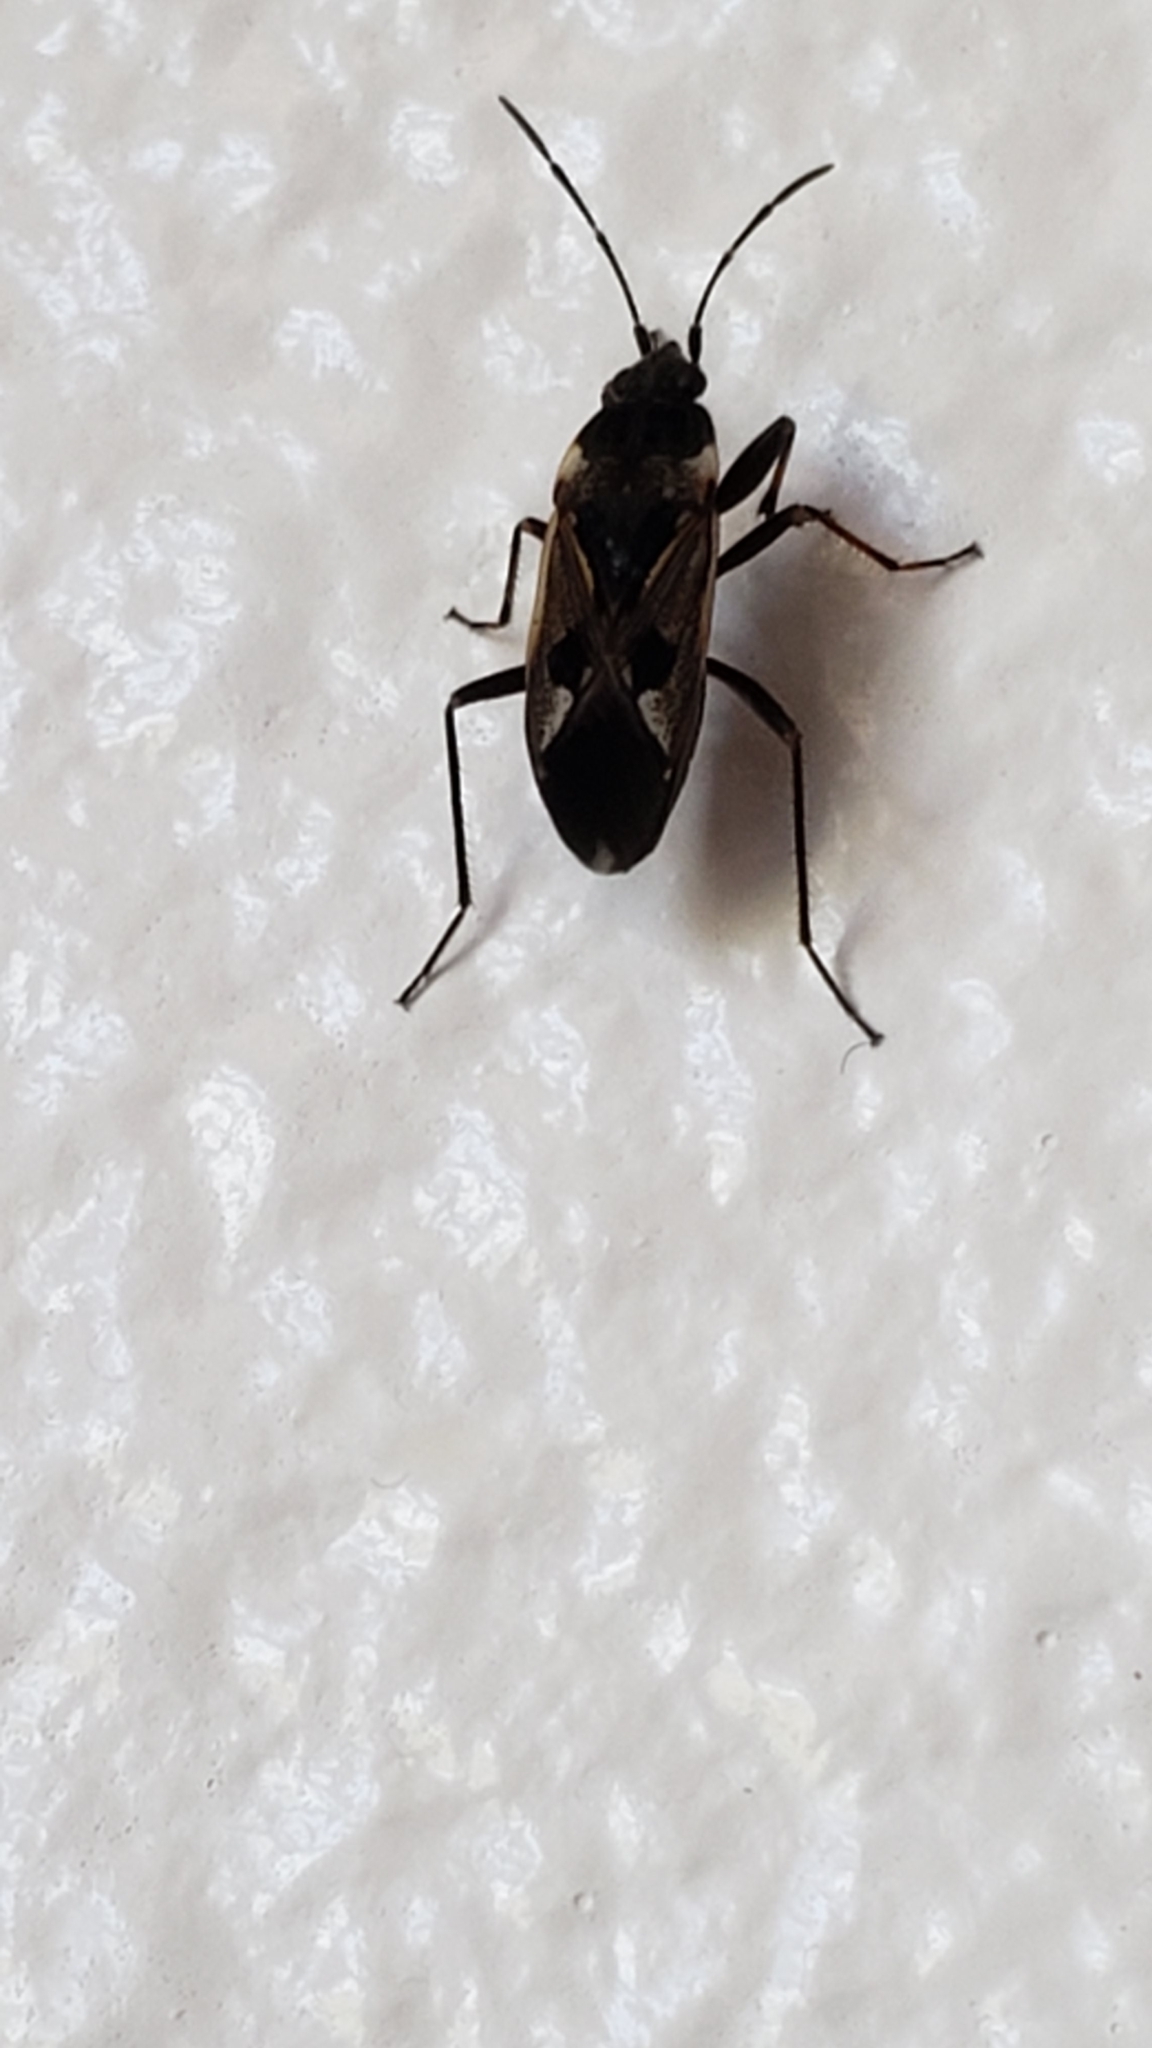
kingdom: Animalia
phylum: Arthropoda
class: Insecta
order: Hemiptera
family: Rhyparochromidae
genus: Rhyparochromus
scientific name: Rhyparochromus vulgaris
